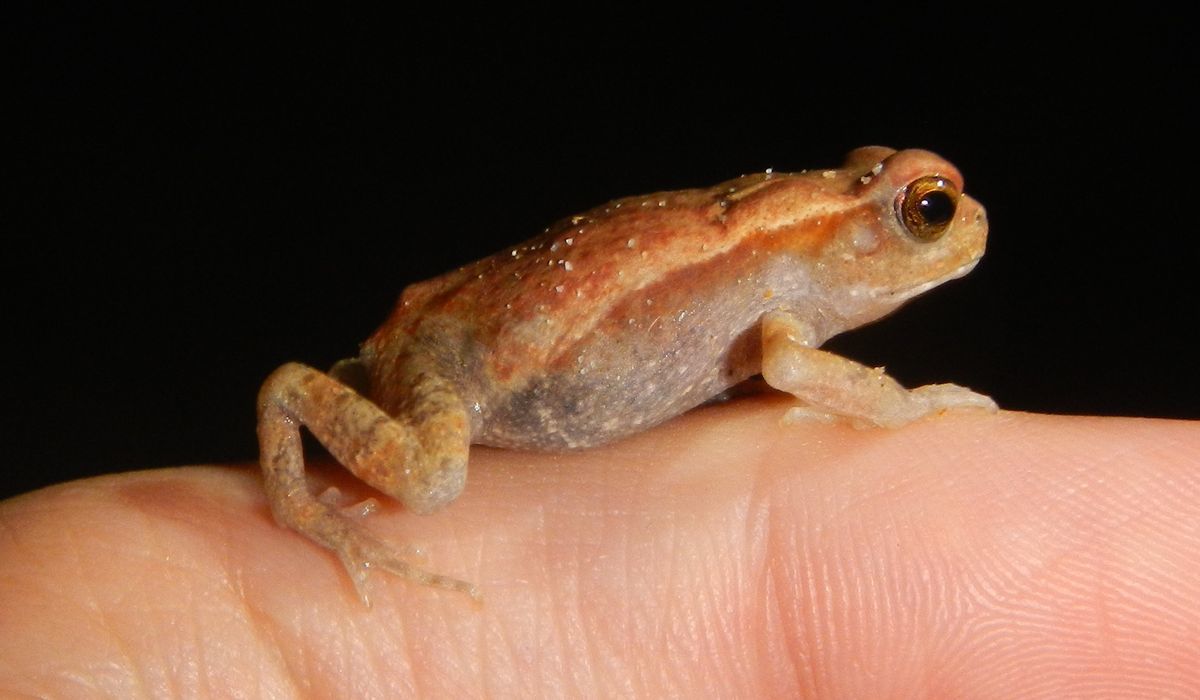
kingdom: Animalia
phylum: Chordata
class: Amphibia
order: Anura
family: Bufonidae
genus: Rhaebo
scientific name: Rhaebo guttatus
